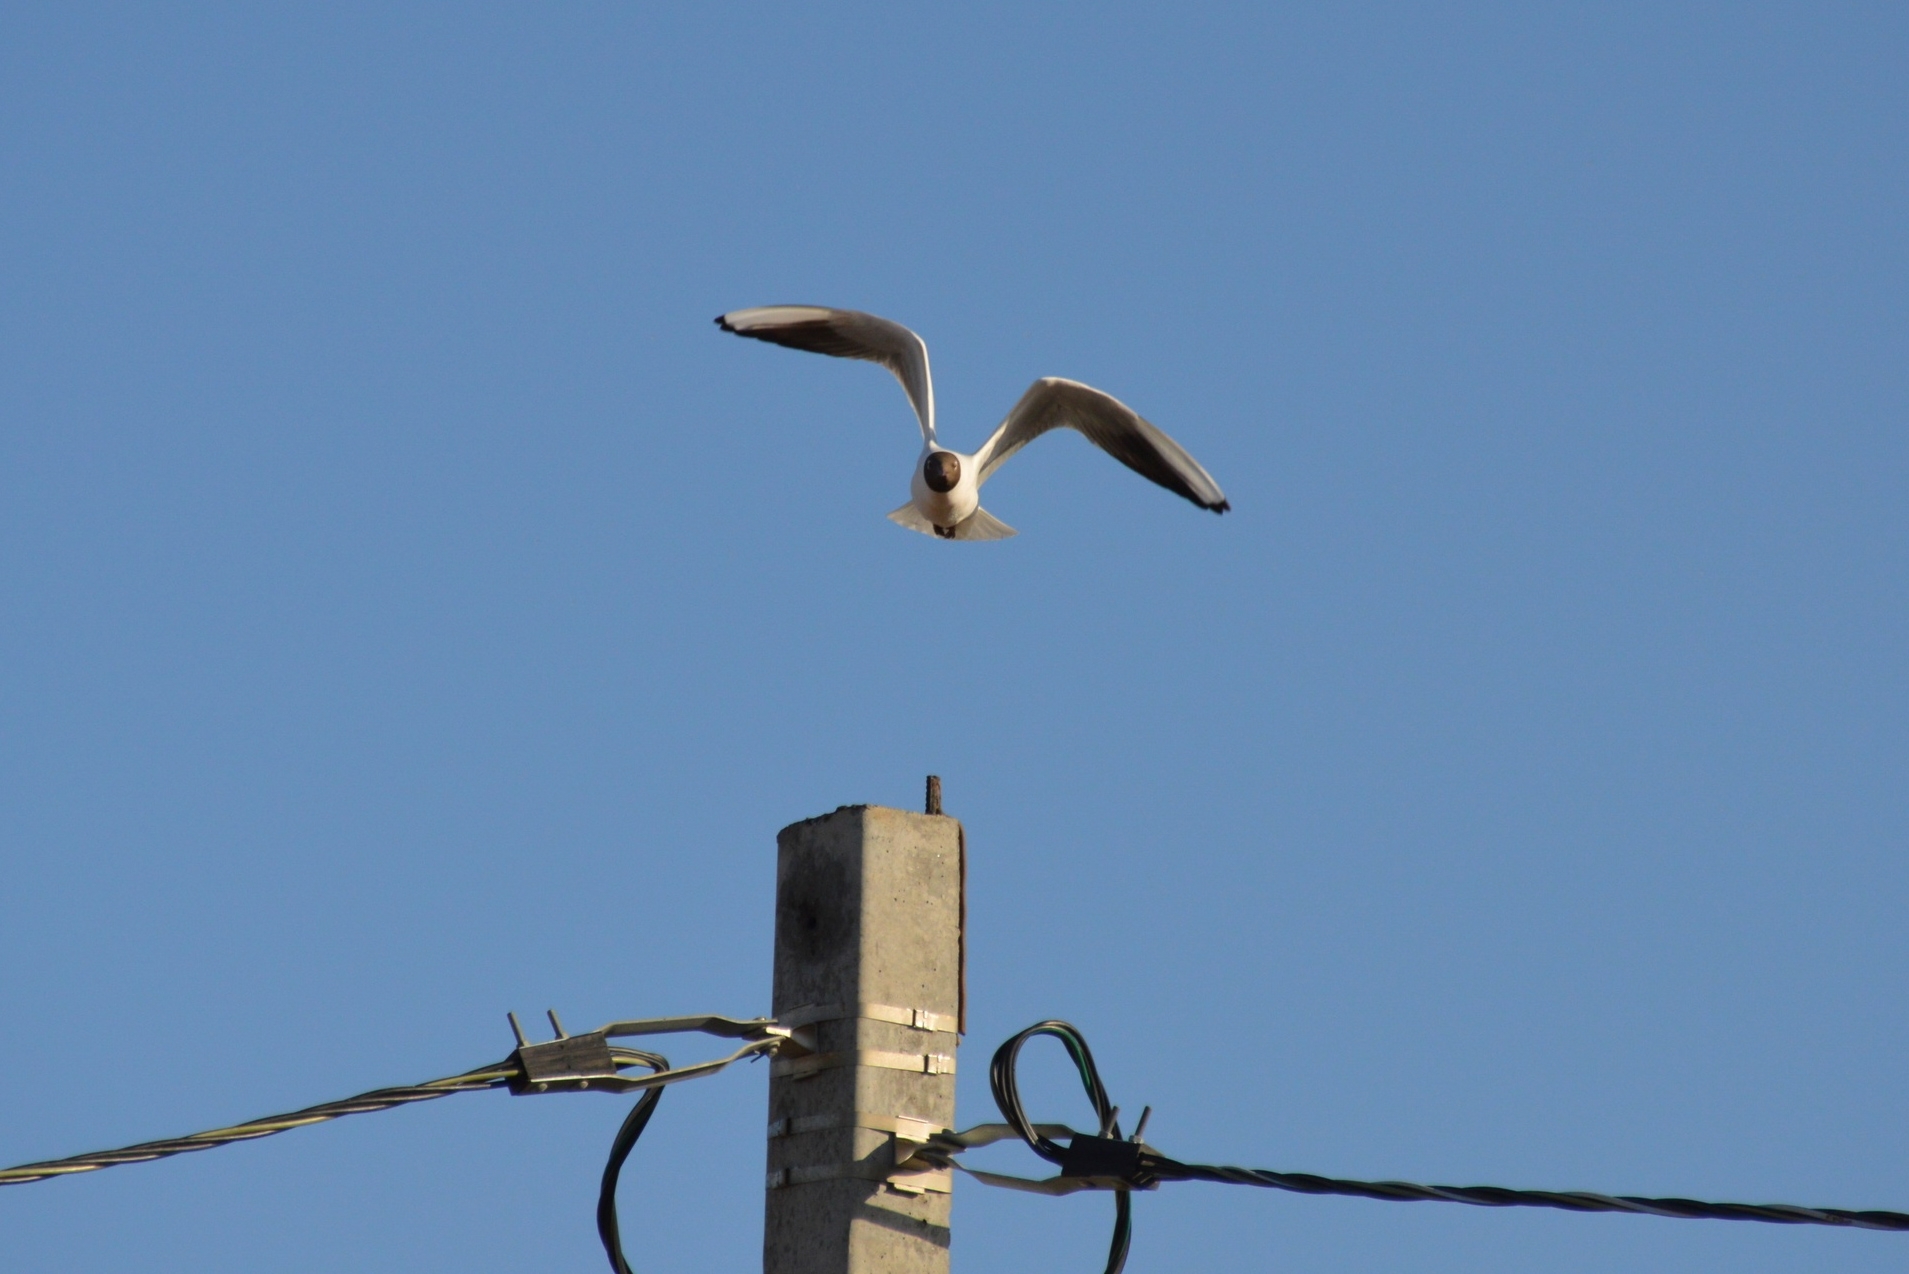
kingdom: Animalia
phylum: Chordata
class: Aves
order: Charadriiformes
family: Laridae
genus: Chroicocephalus
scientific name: Chroicocephalus ridibundus
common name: Black-headed gull
